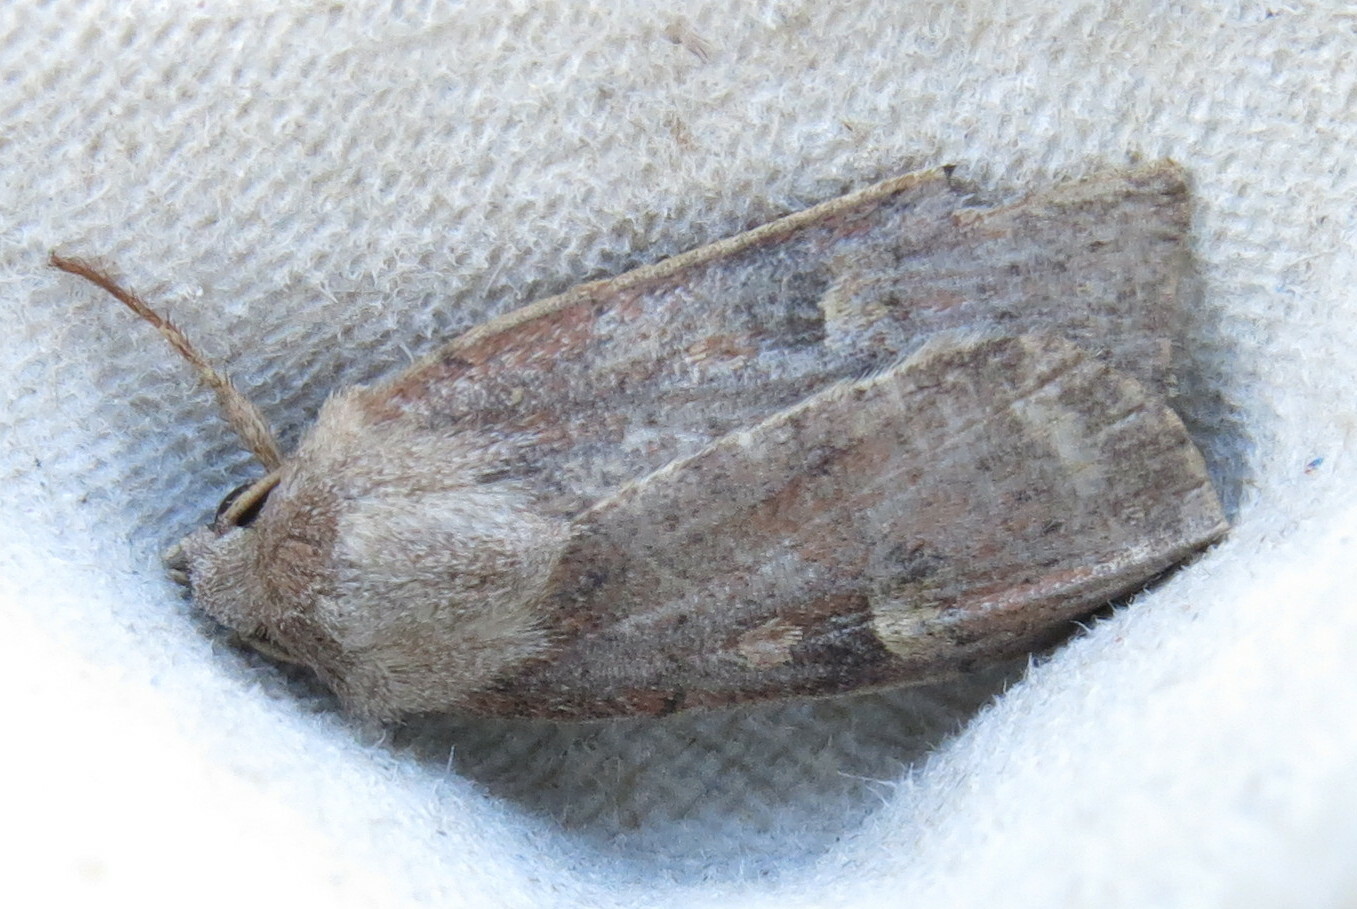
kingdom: Animalia
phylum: Arthropoda
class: Insecta
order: Lepidoptera
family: Noctuidae
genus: Xestia
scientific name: Xestia xanthographa
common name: Square-spot rustic
